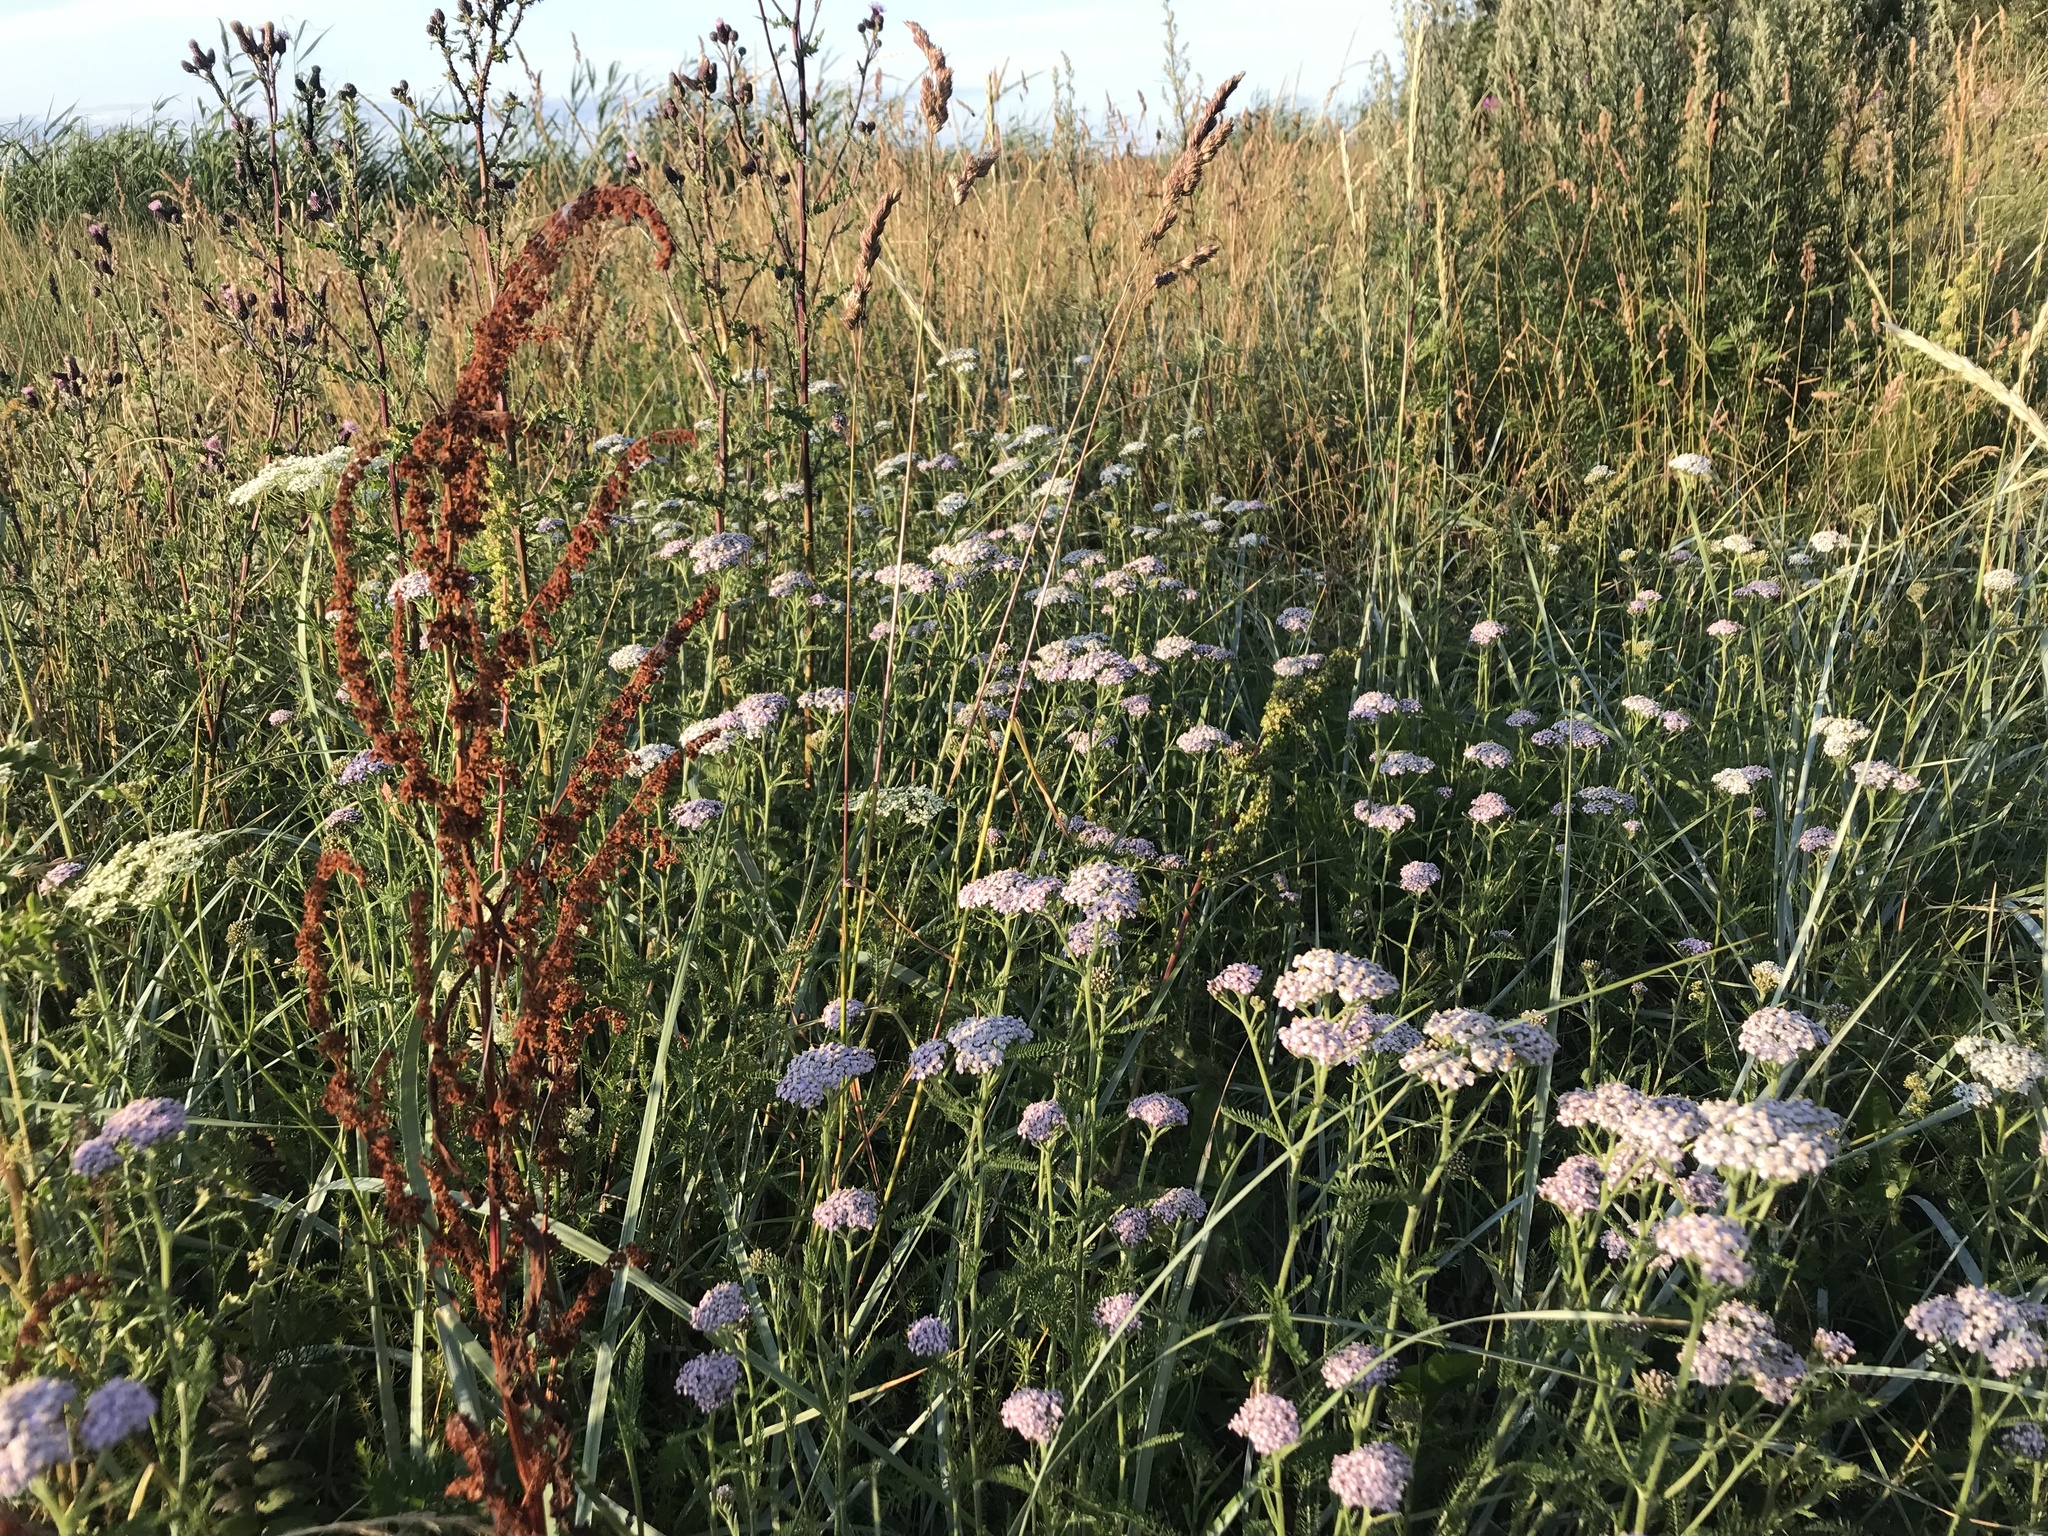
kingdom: Plantae
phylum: Tracheophyta
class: Magnoliopsida
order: Asterales
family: Asteraceae
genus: Achillea
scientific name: Achillea millefolium
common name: Yarrow
